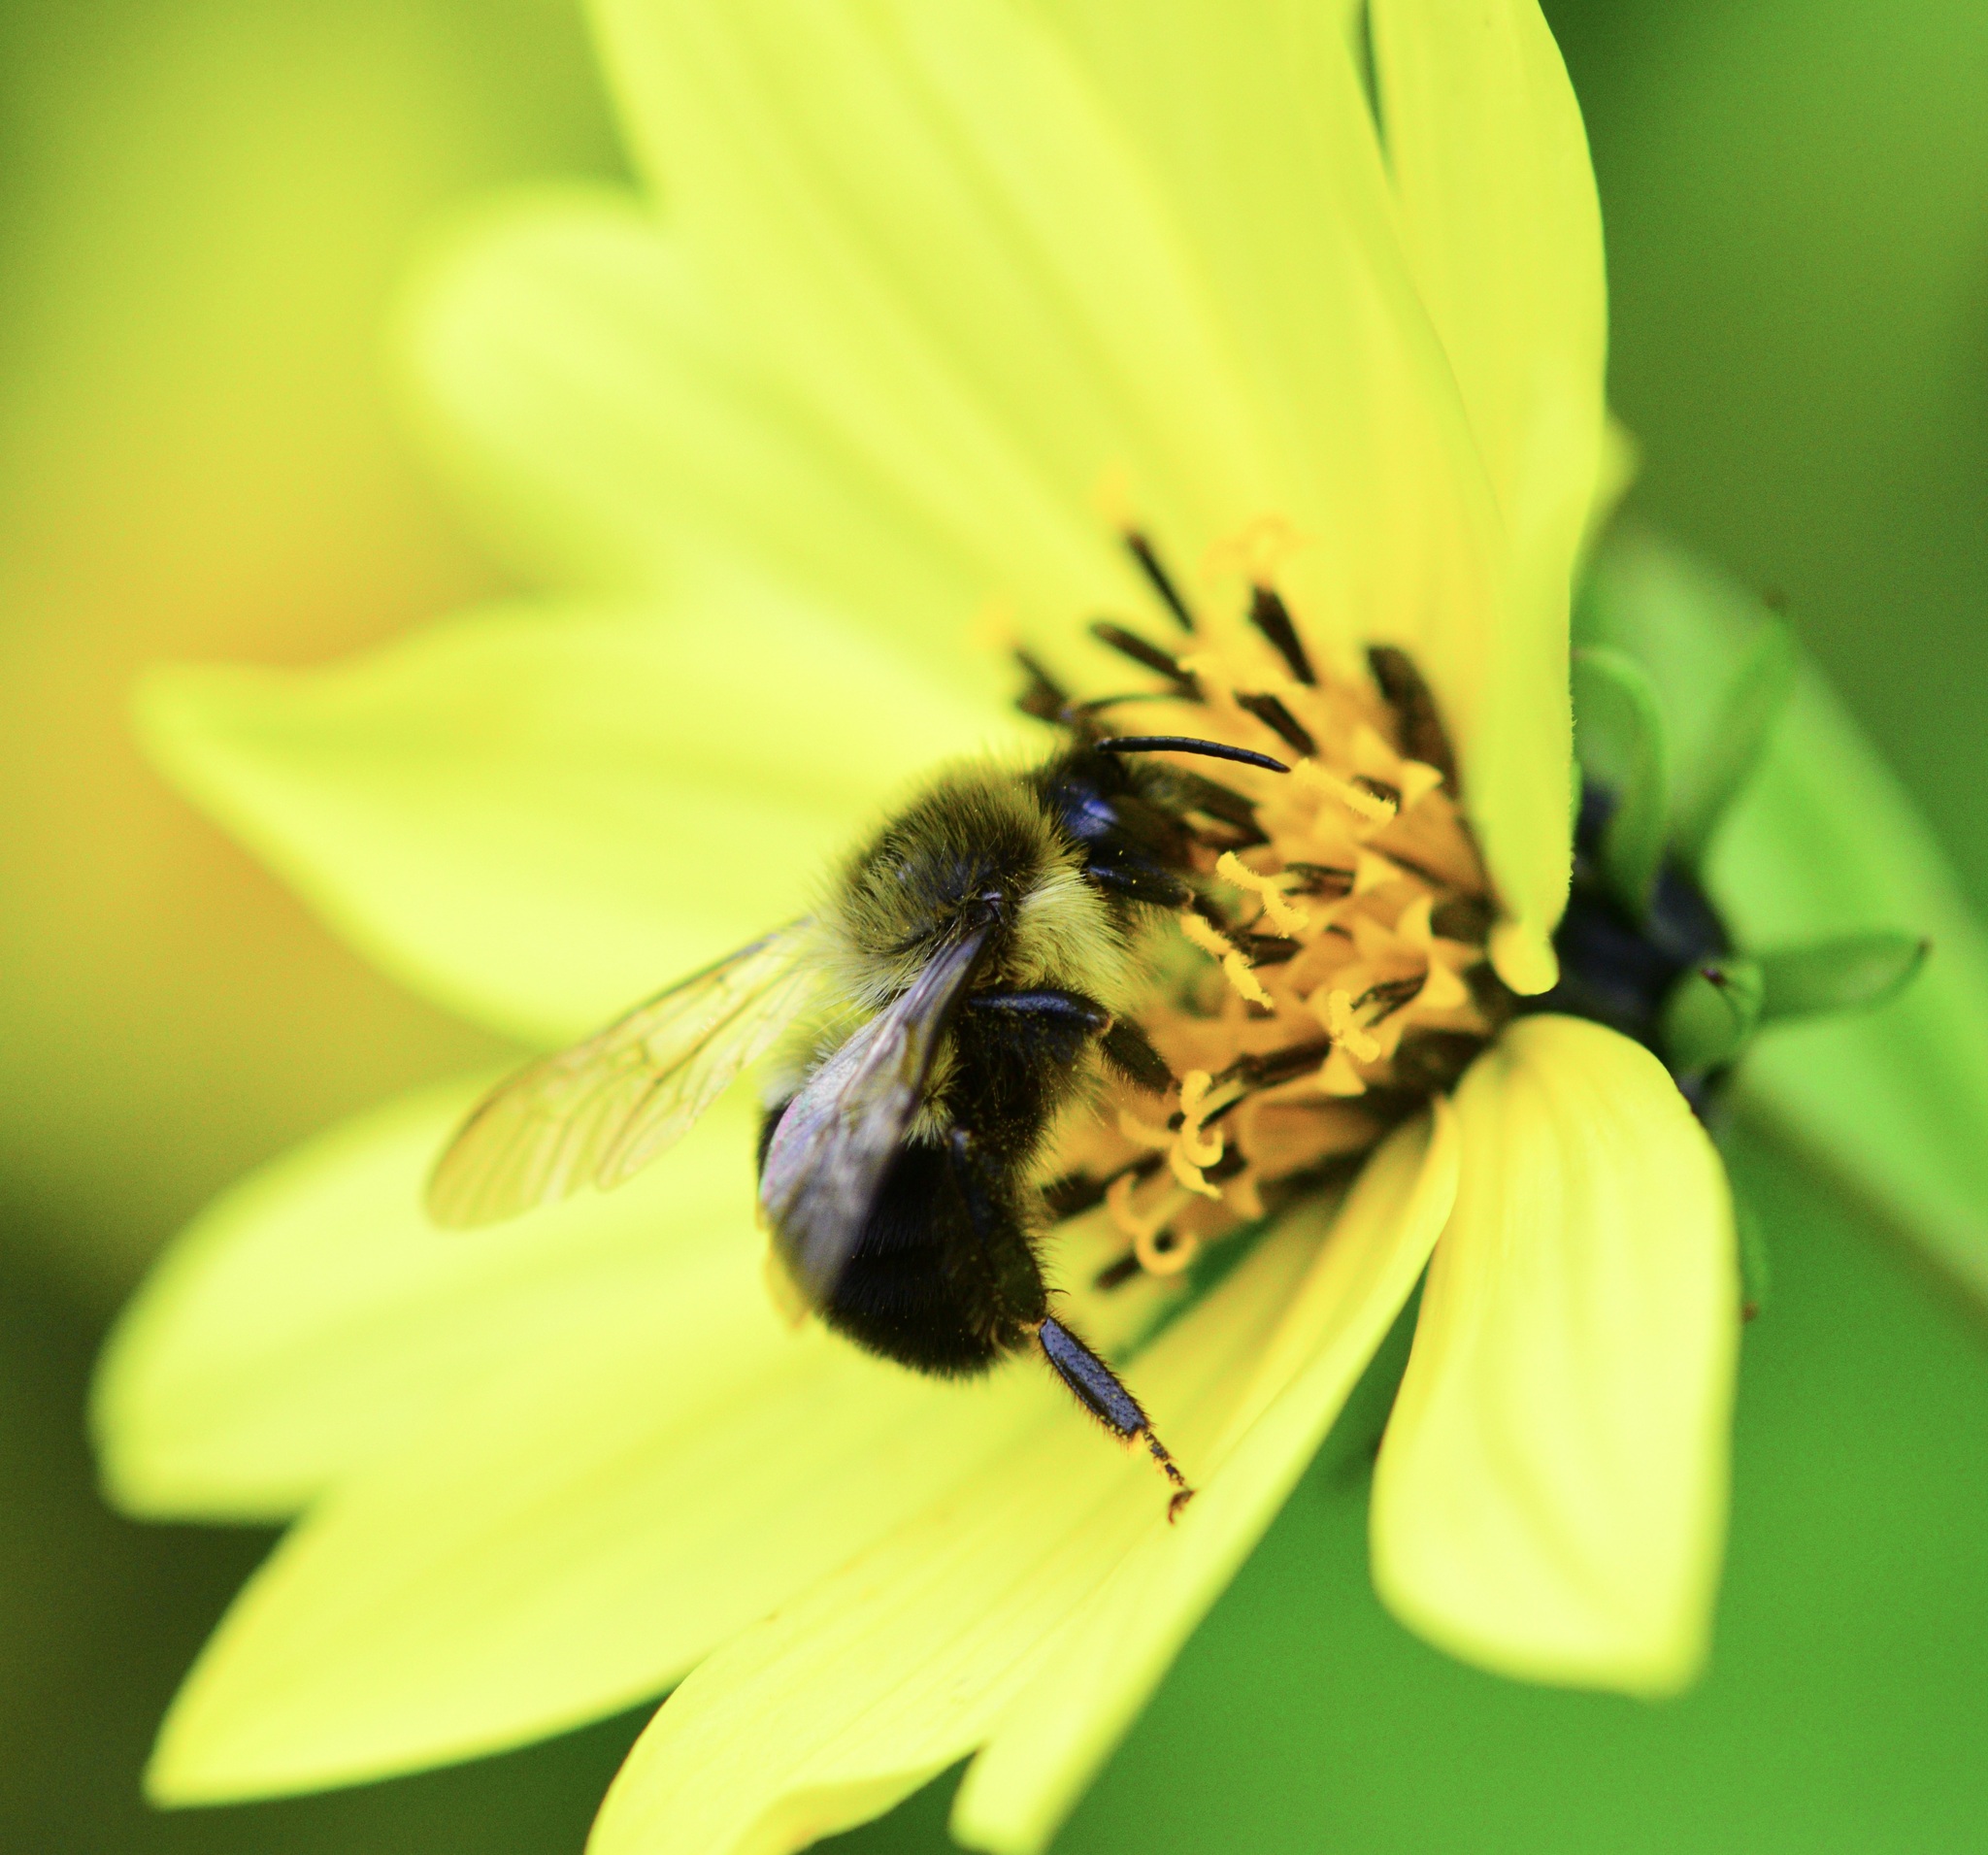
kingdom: Animalia
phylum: Arthropoda
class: Insecta
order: Hymenoptera
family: Apidae
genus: Bombus
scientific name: Bombus impatiens
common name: Common eastern bumble bee
